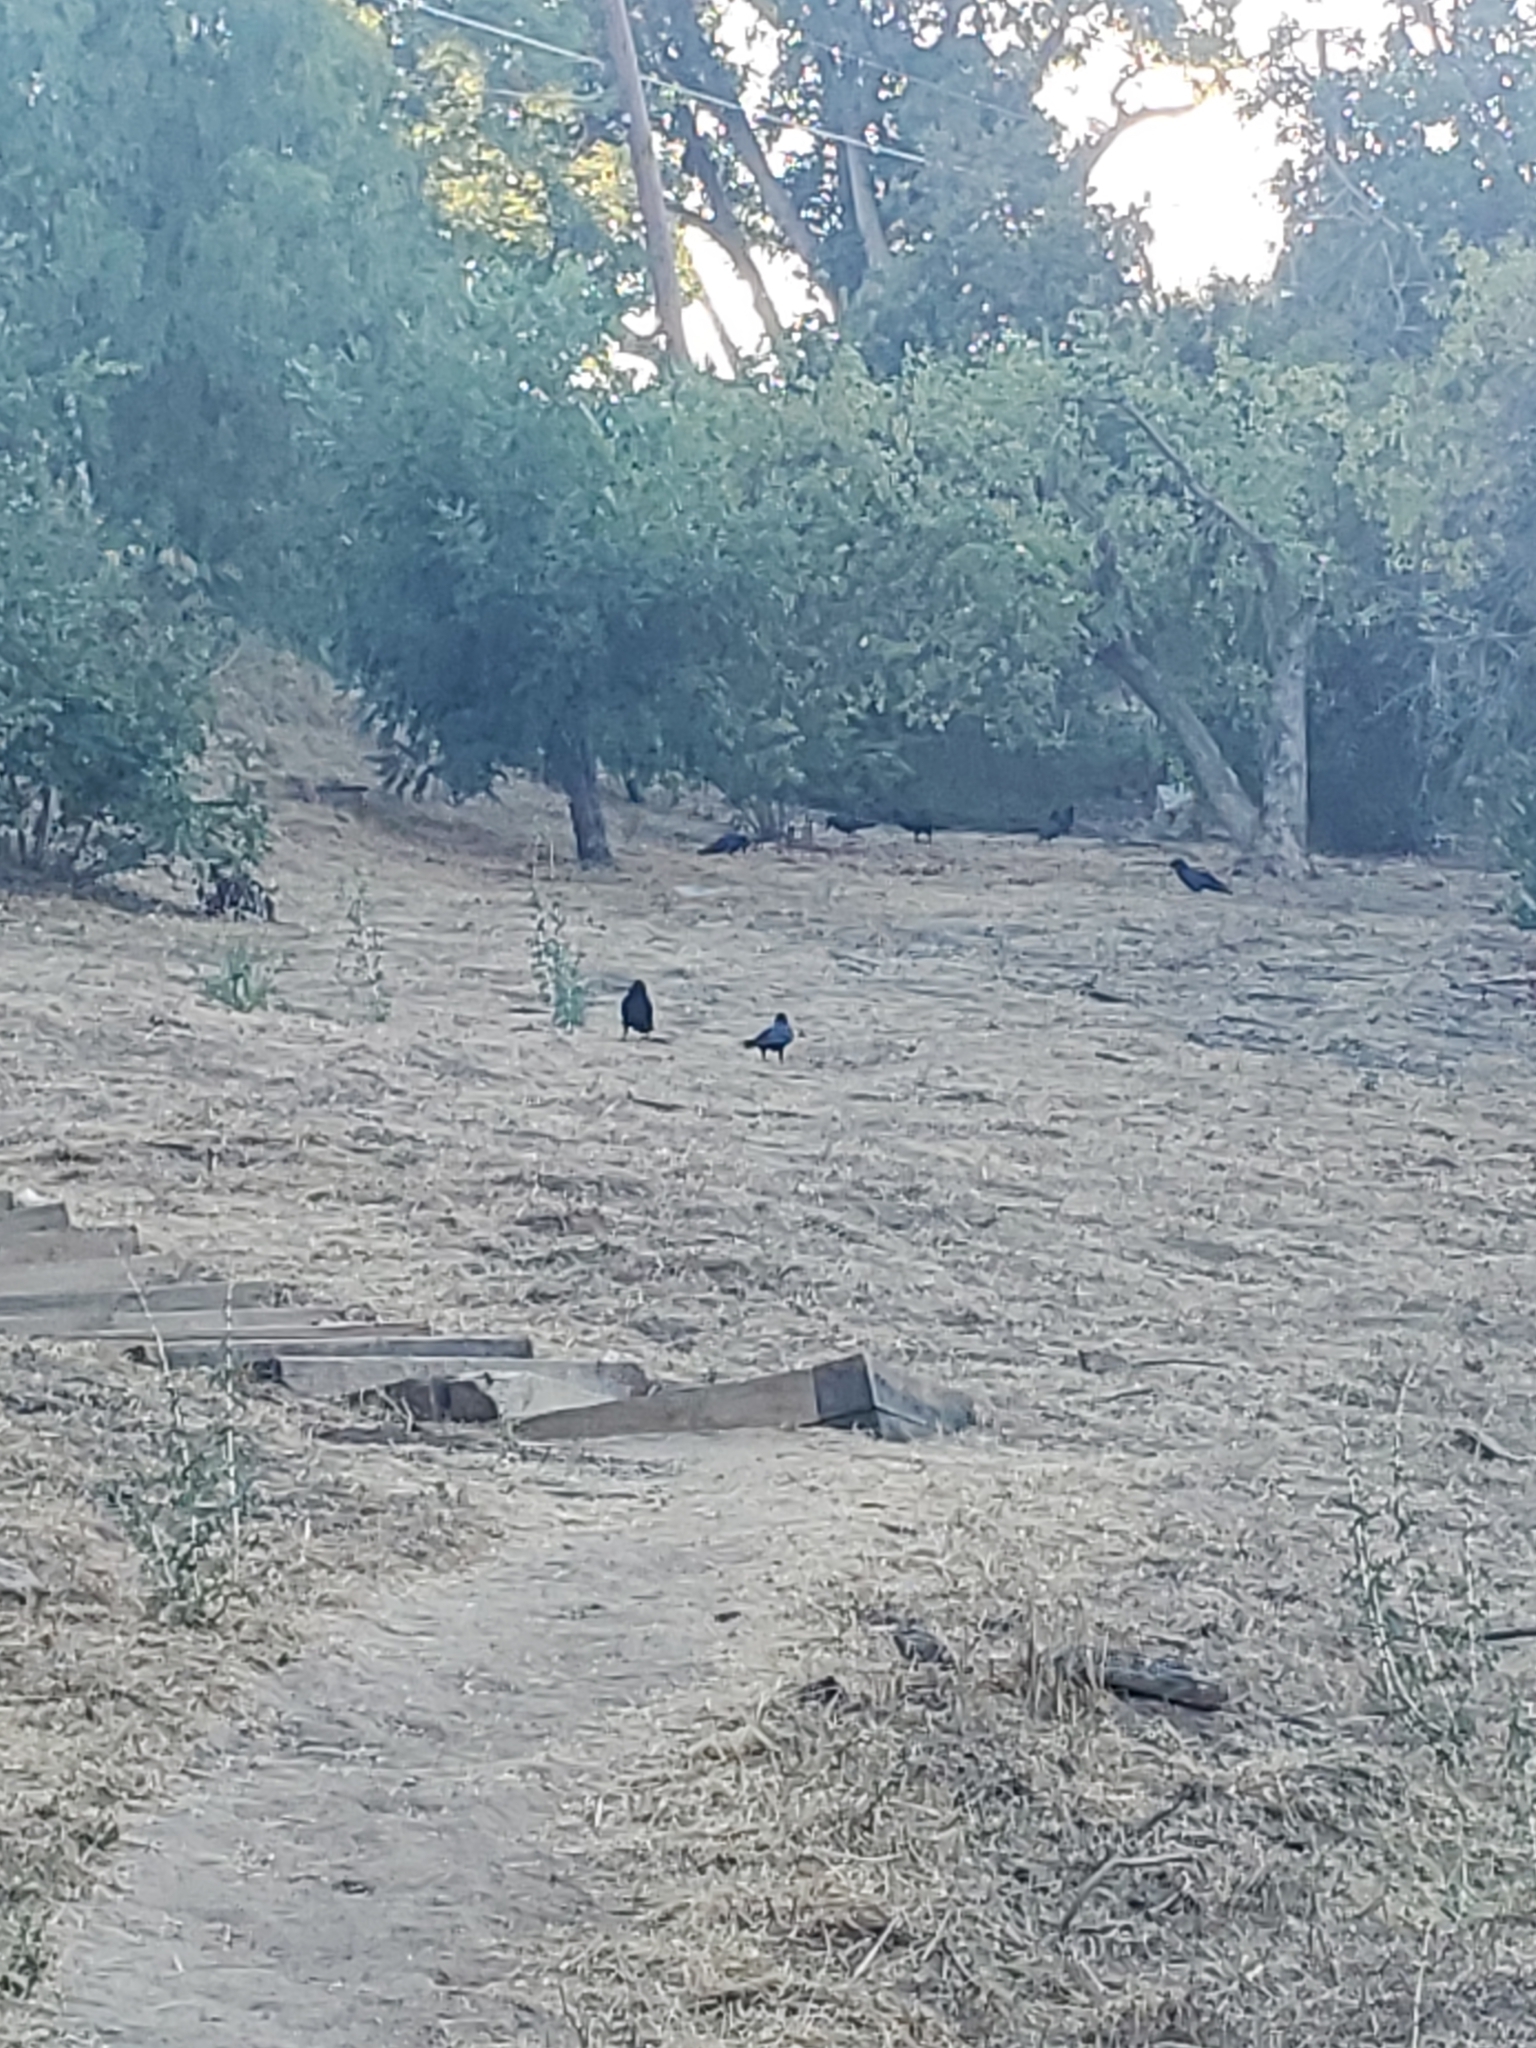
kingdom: Animalia
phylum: Chordata
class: Aves
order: Passeriformes
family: Corvidae
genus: Corvus
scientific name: Corvus corax
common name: Common raven
